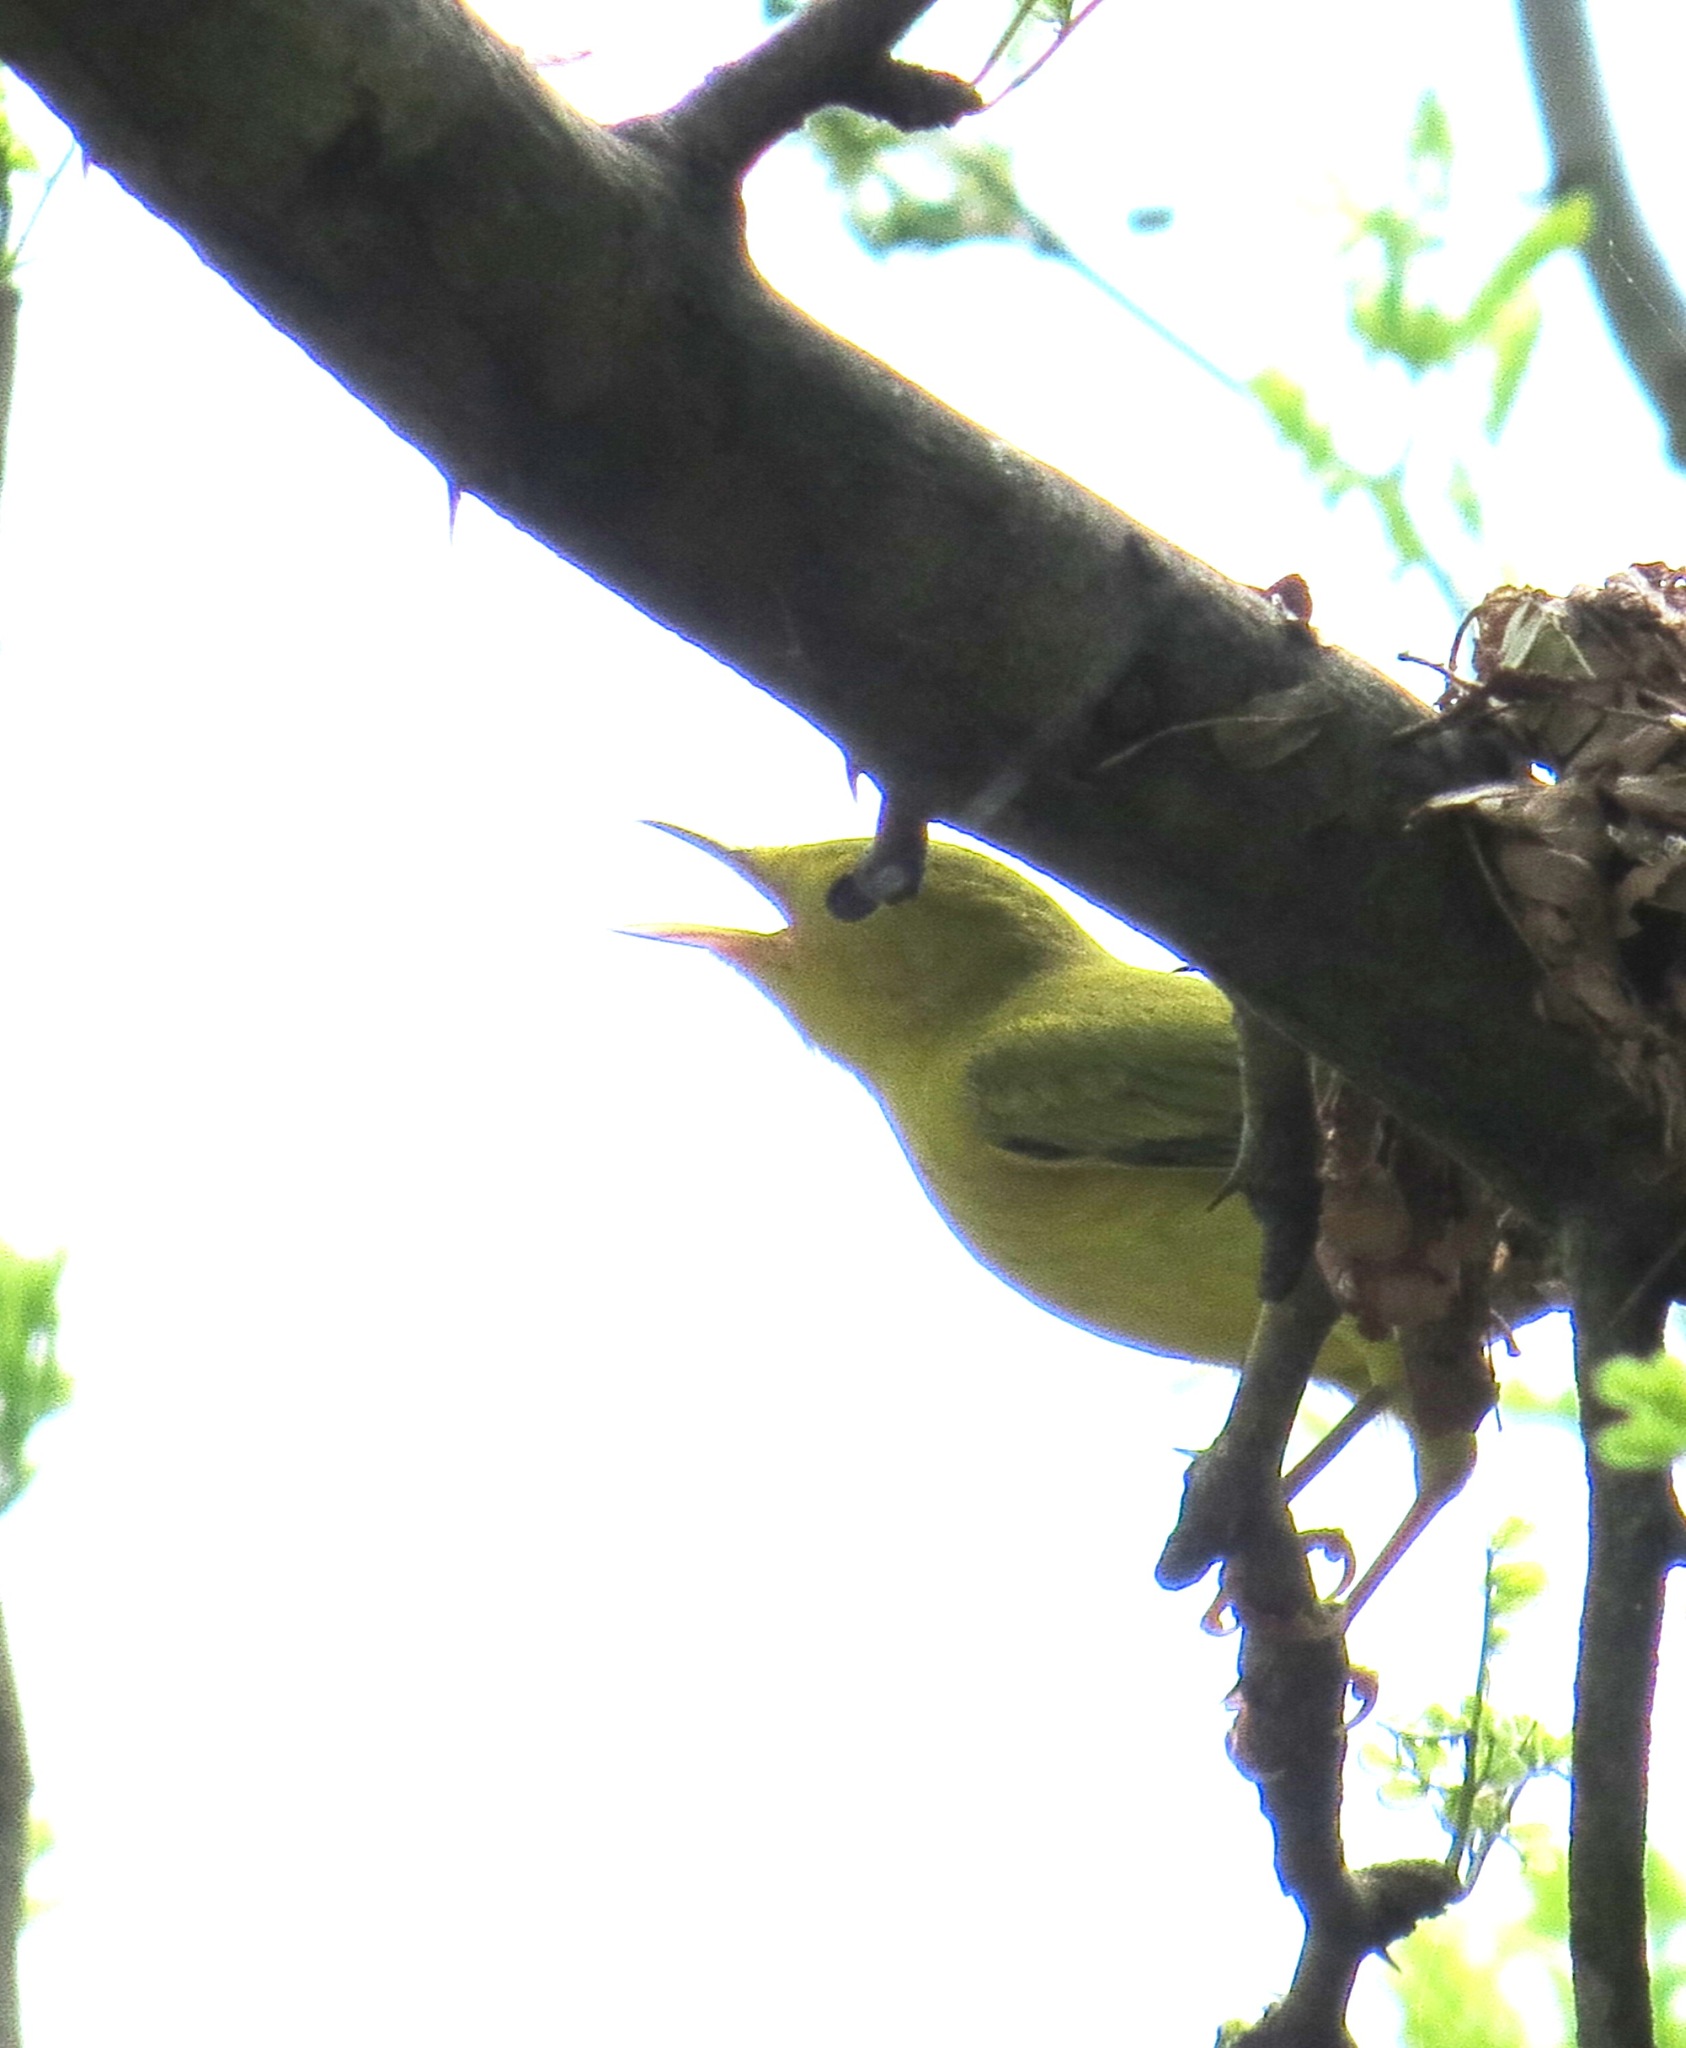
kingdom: Animalia
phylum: Chordata
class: Aves
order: Passeriformes
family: Parulidae
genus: Setophaga
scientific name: Setophaga petechia
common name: Yellow warbler
